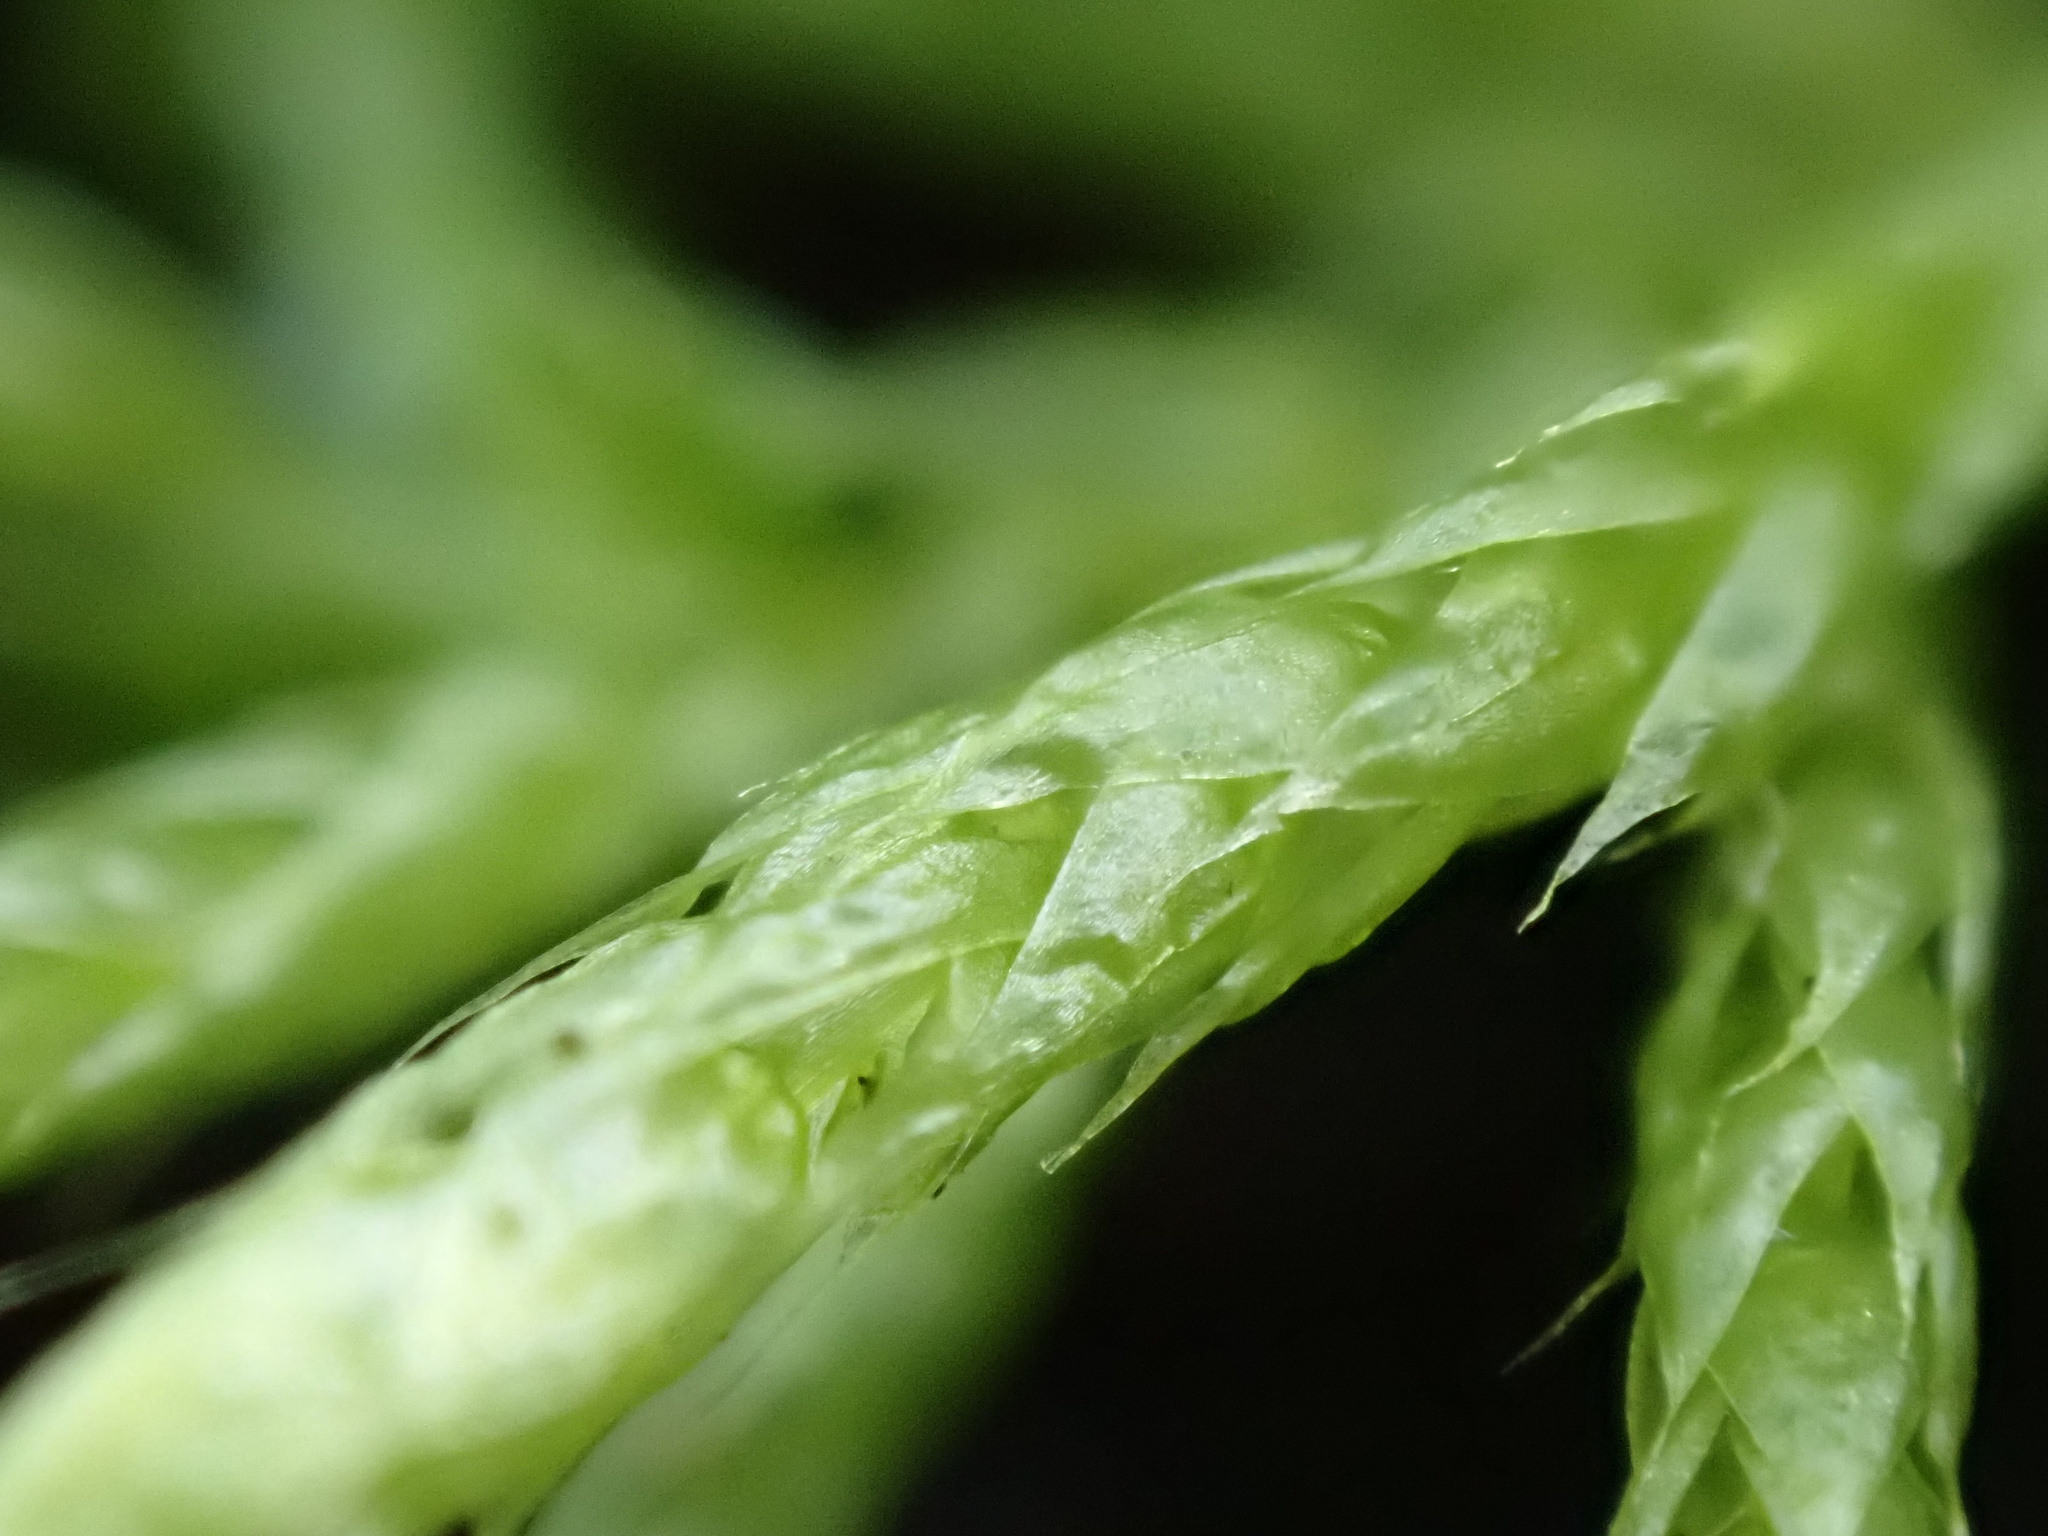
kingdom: Plantae
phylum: Bryophyta
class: Bryopsida
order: Hypnales
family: Brachytheciaceae
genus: Brachythecium
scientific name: Brachythecium albicans
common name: Whitish ragged moss
